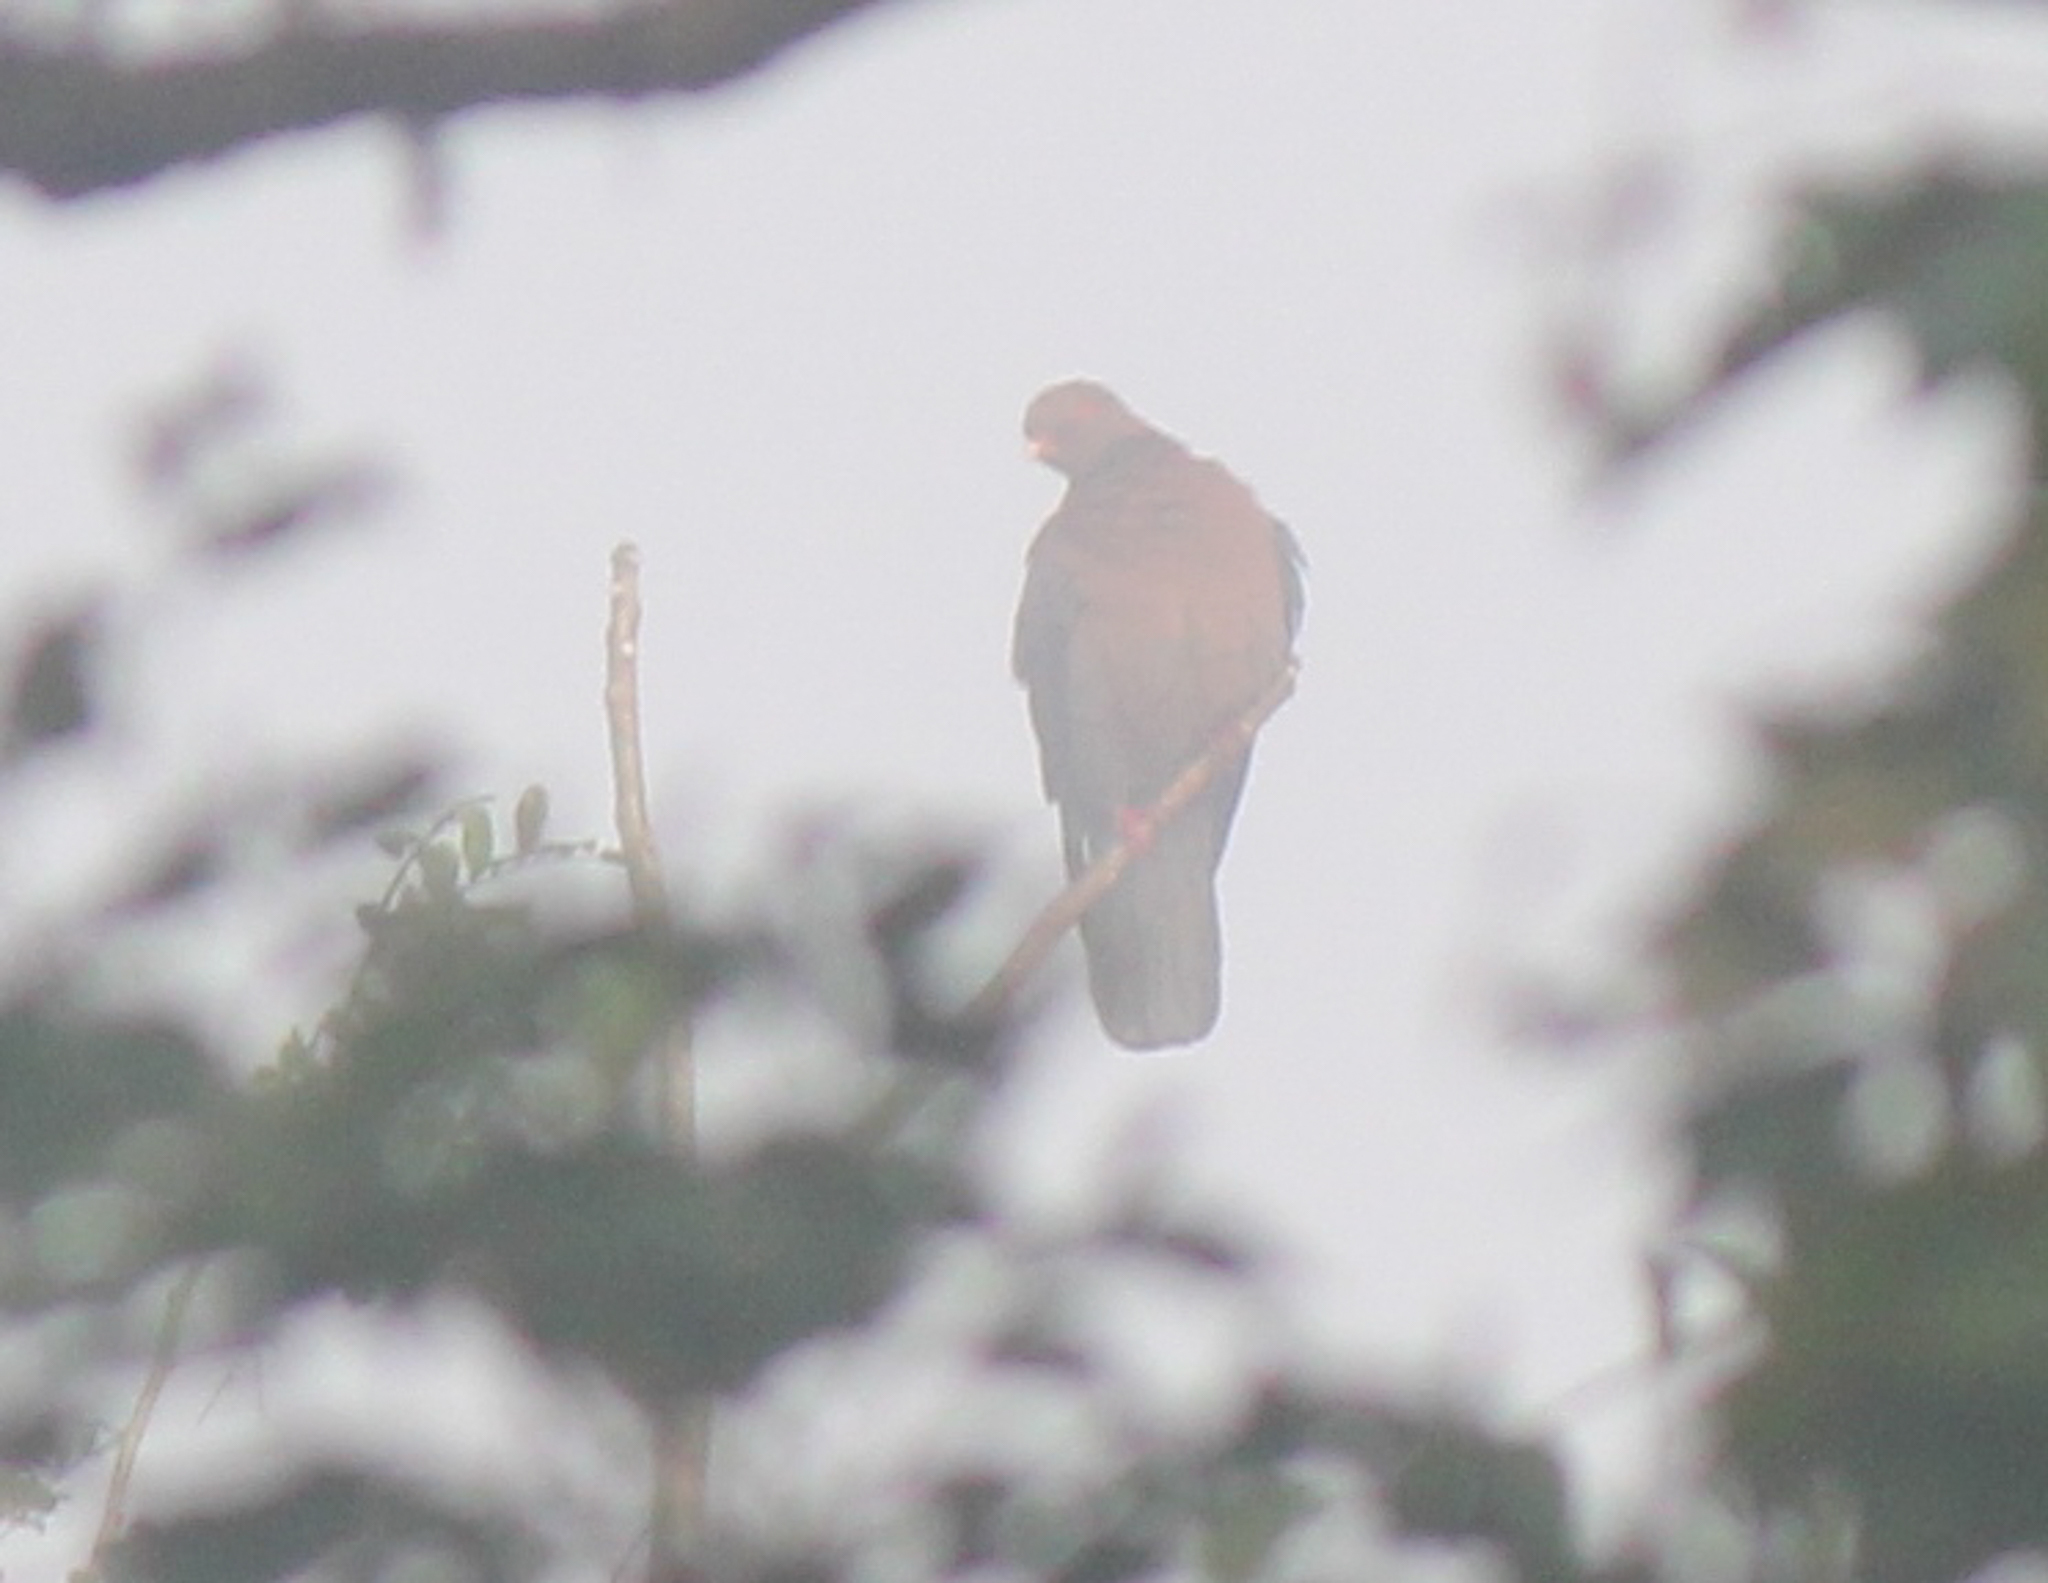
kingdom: Animalia
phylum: Chordata
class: Aves
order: Columbiformes
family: Columbidae
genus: Patagioenas
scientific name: Patagioenas flavirostris
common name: Red-billed pigeon
